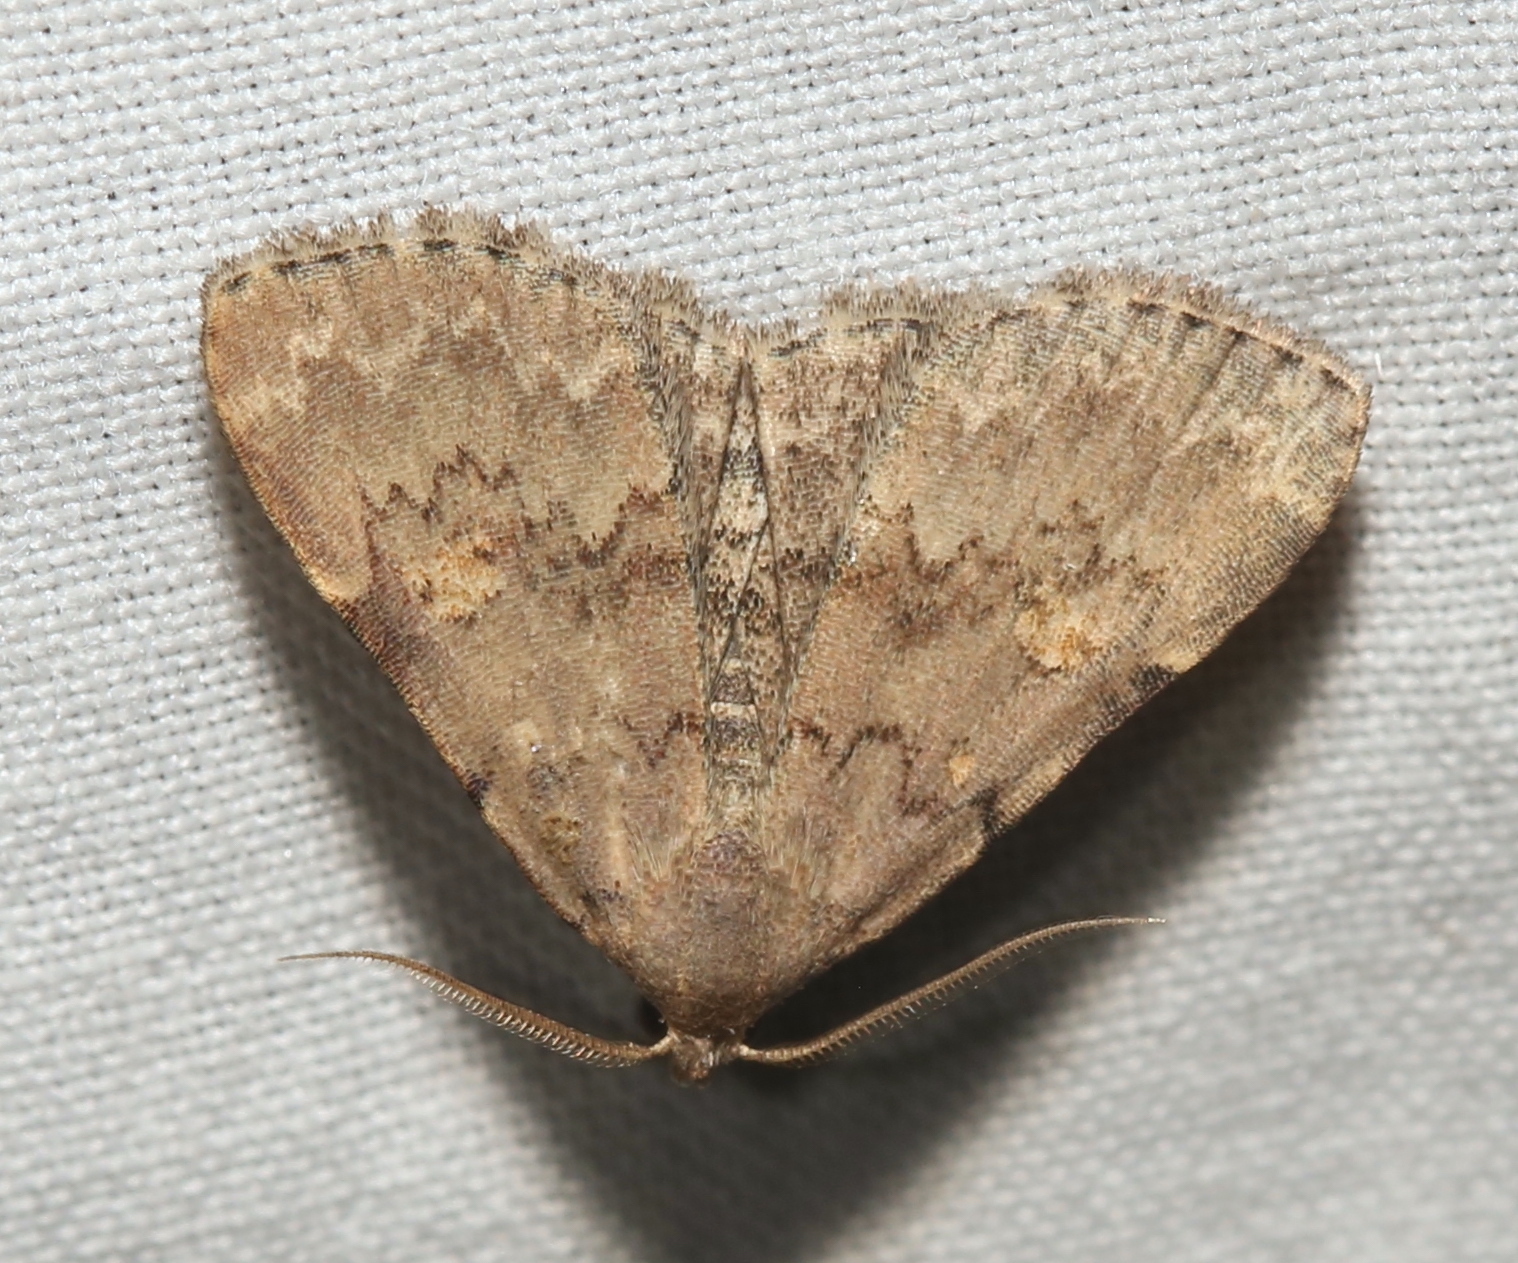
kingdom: Animalia
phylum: Arthropoda
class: Insecta
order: Lepidoptera
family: Erebidae
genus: Idia
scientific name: Idia aemula
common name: Common idia moth
